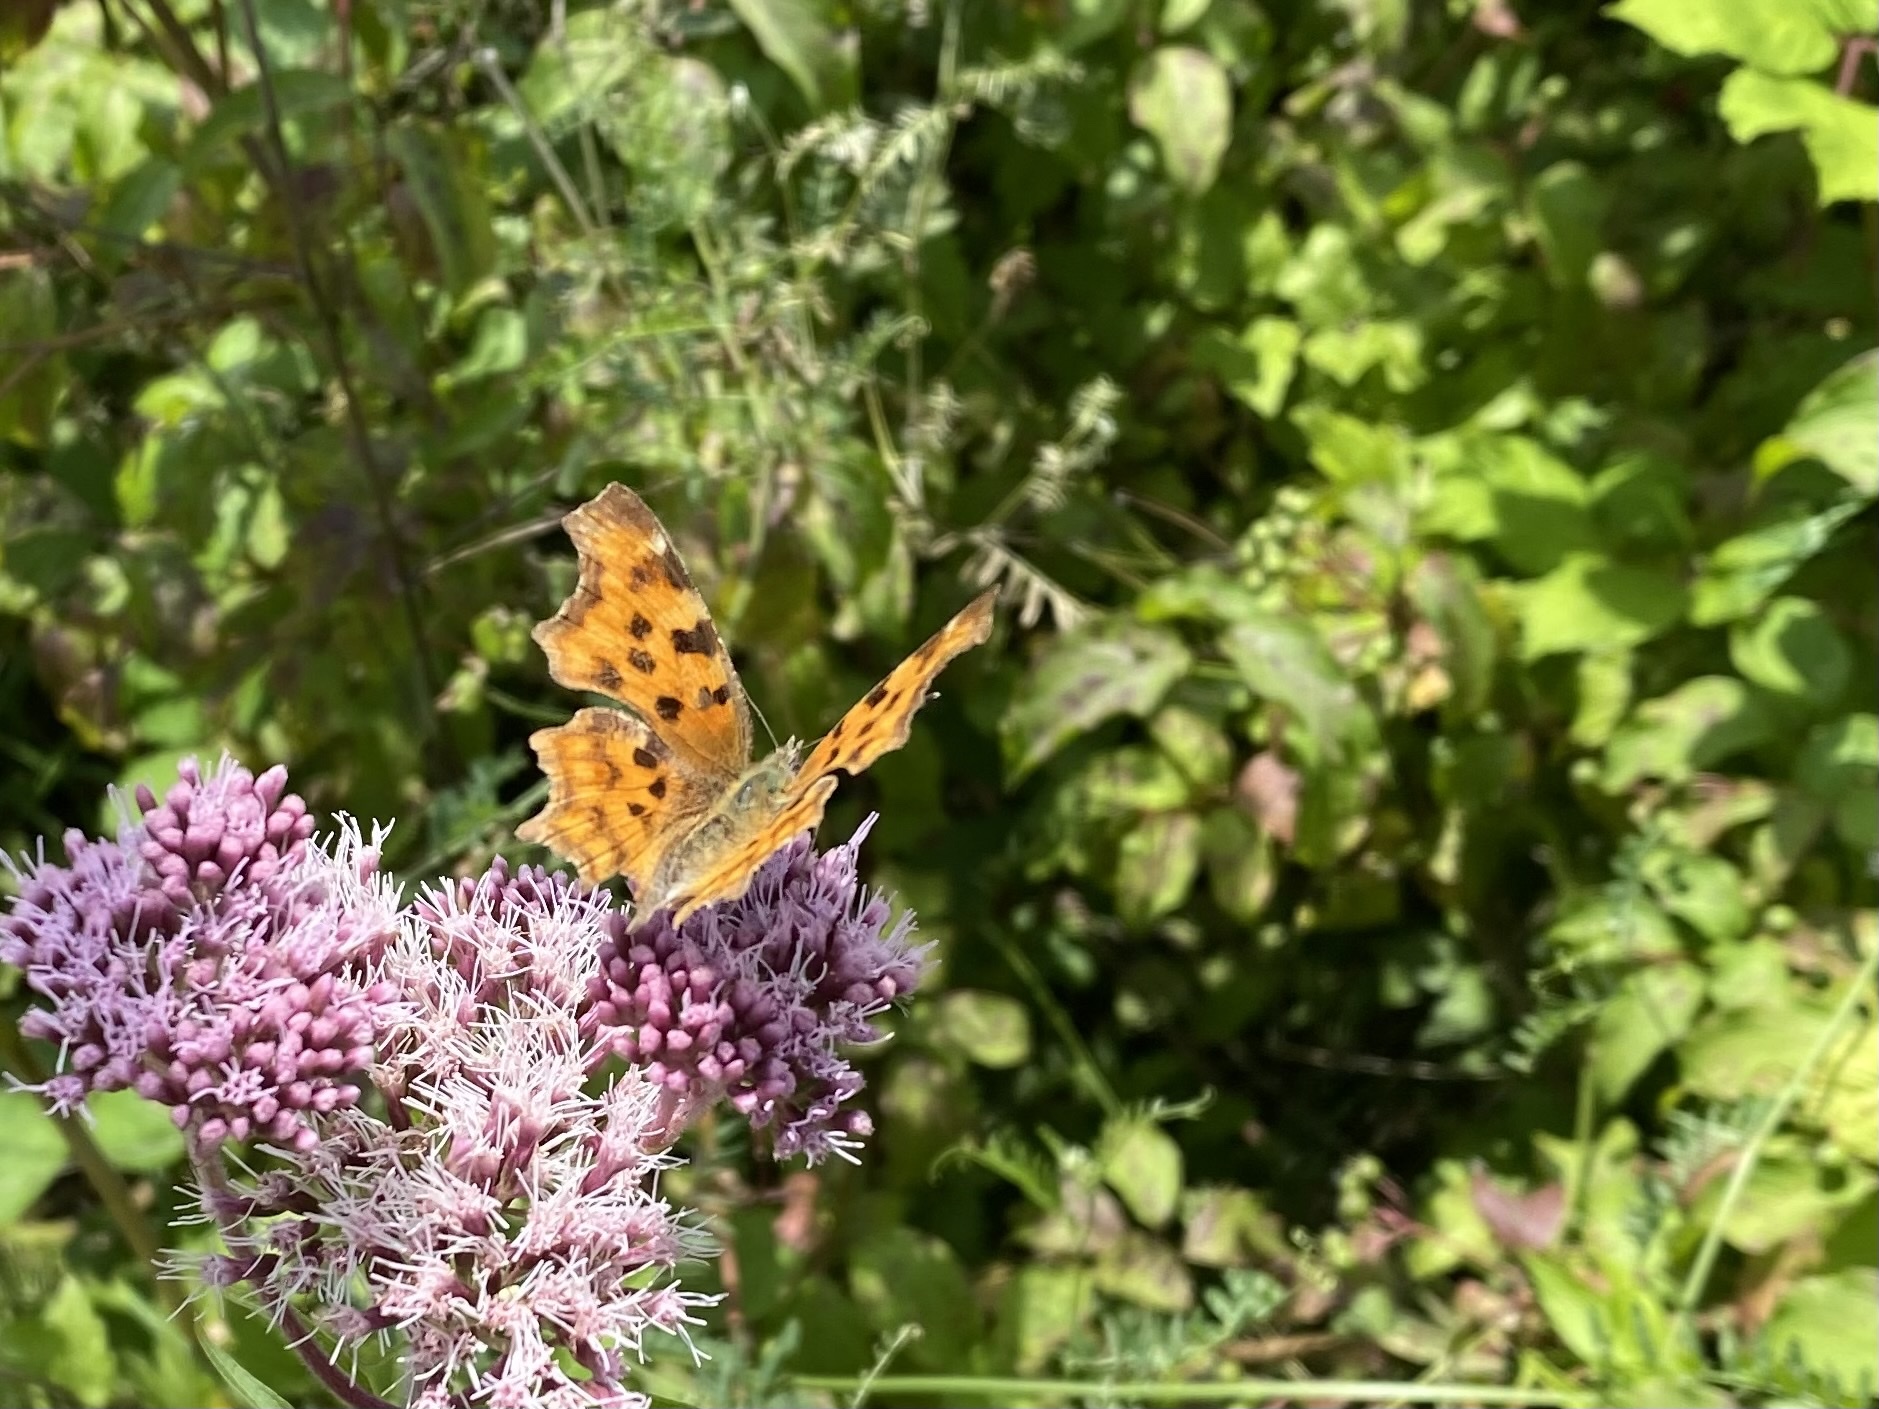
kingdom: Animalia
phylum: Arthropoda
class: Insecta
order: Lepidoptera
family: Nymphalidae
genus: Polygonia
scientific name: Polygonia c-album
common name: Comma
